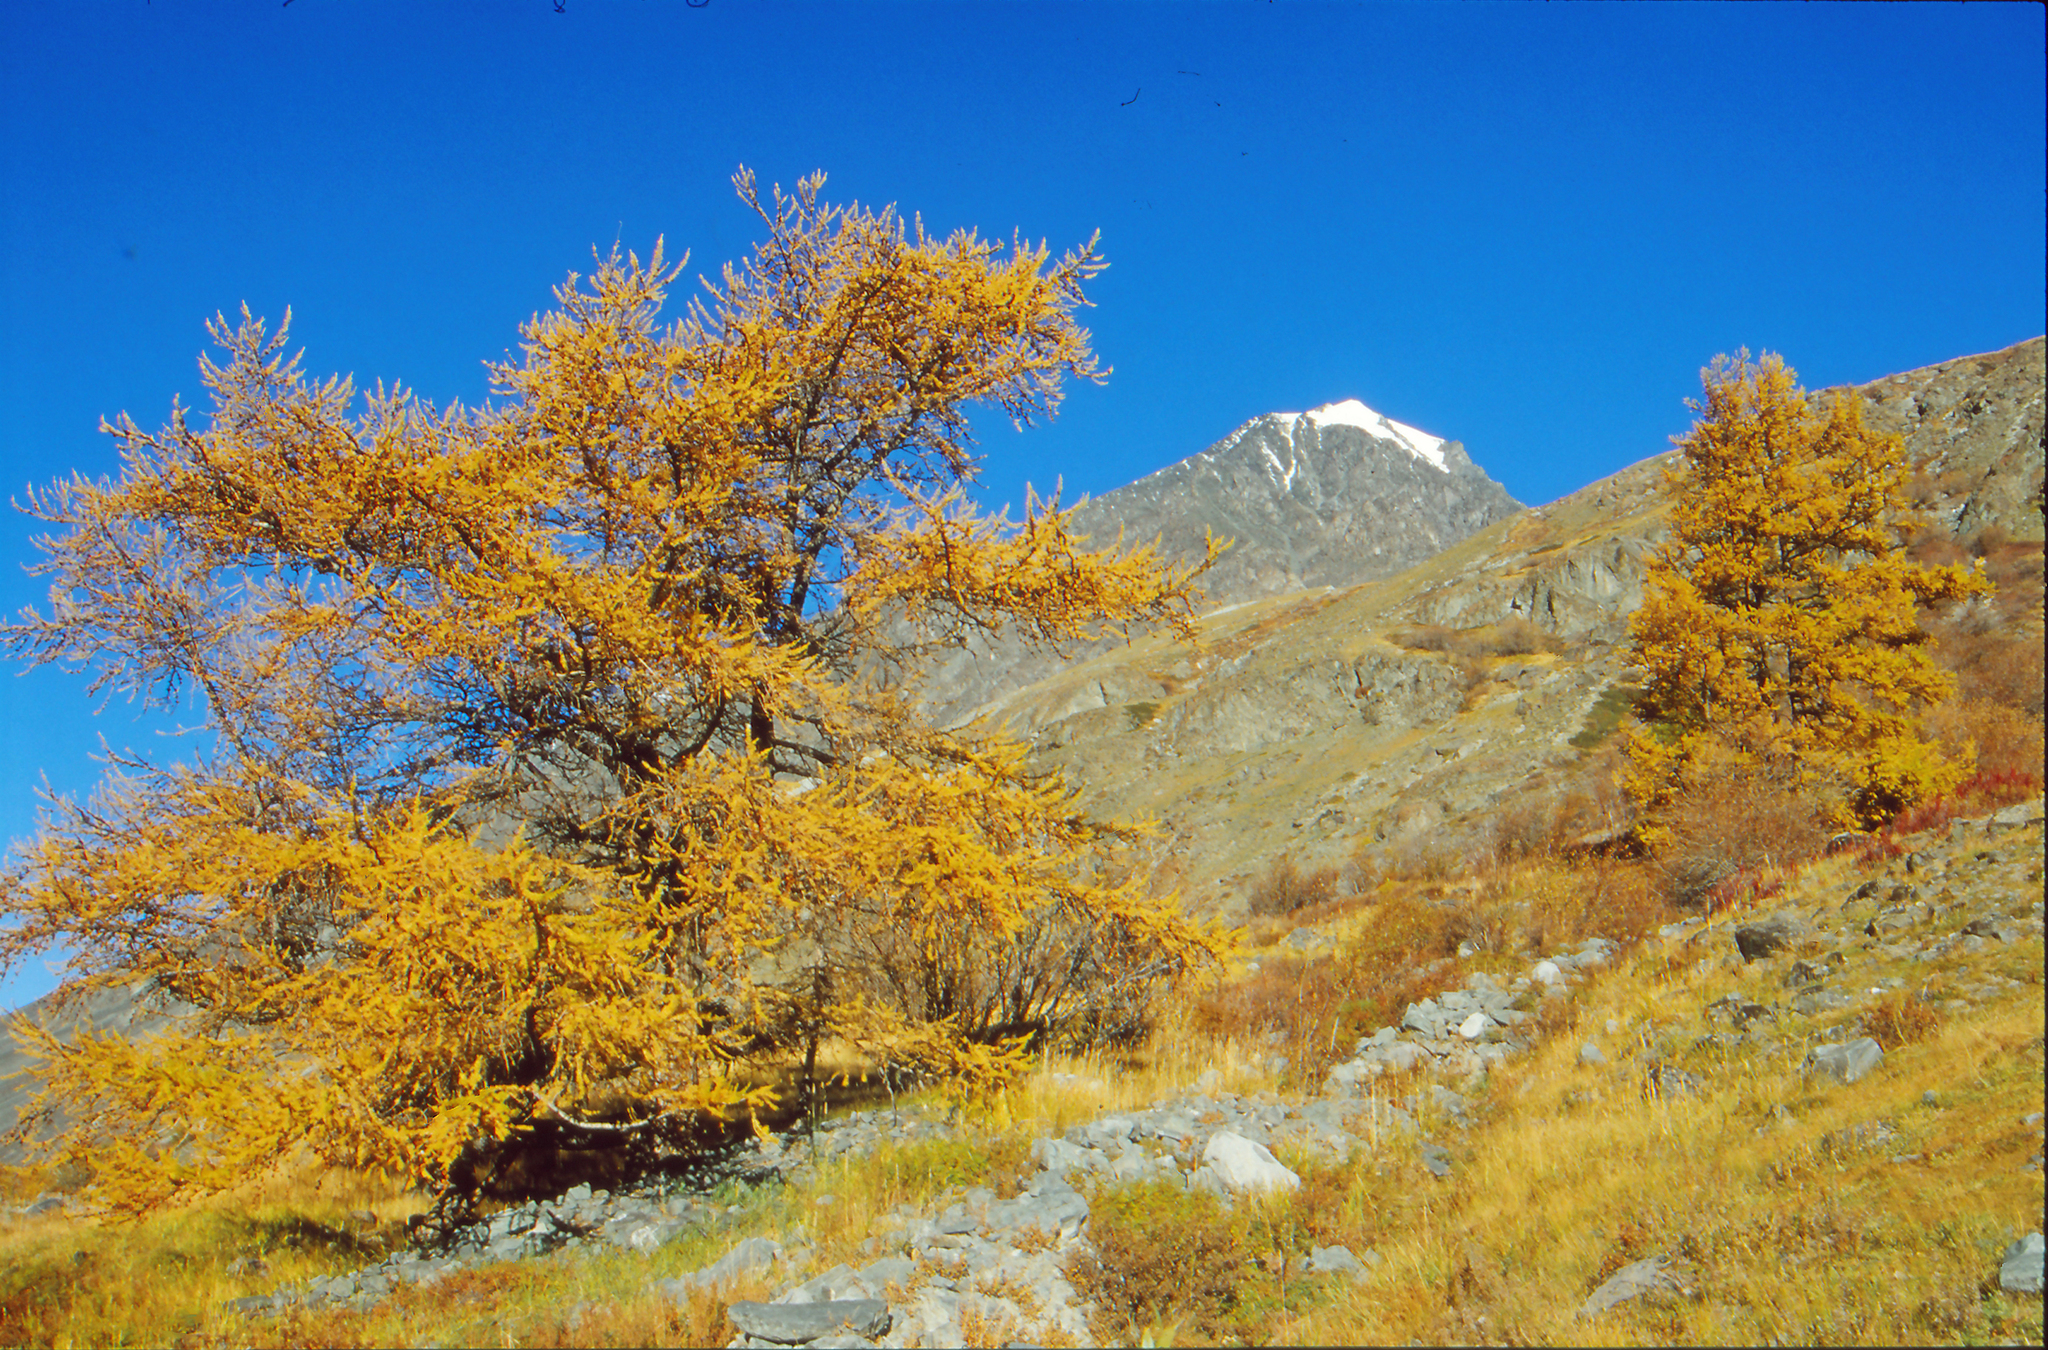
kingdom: Plantae
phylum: Tracheophyta
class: Pinopsida
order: Pinales
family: Pinaceae
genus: Larix
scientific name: Larix sibirica
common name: Siberian larch
